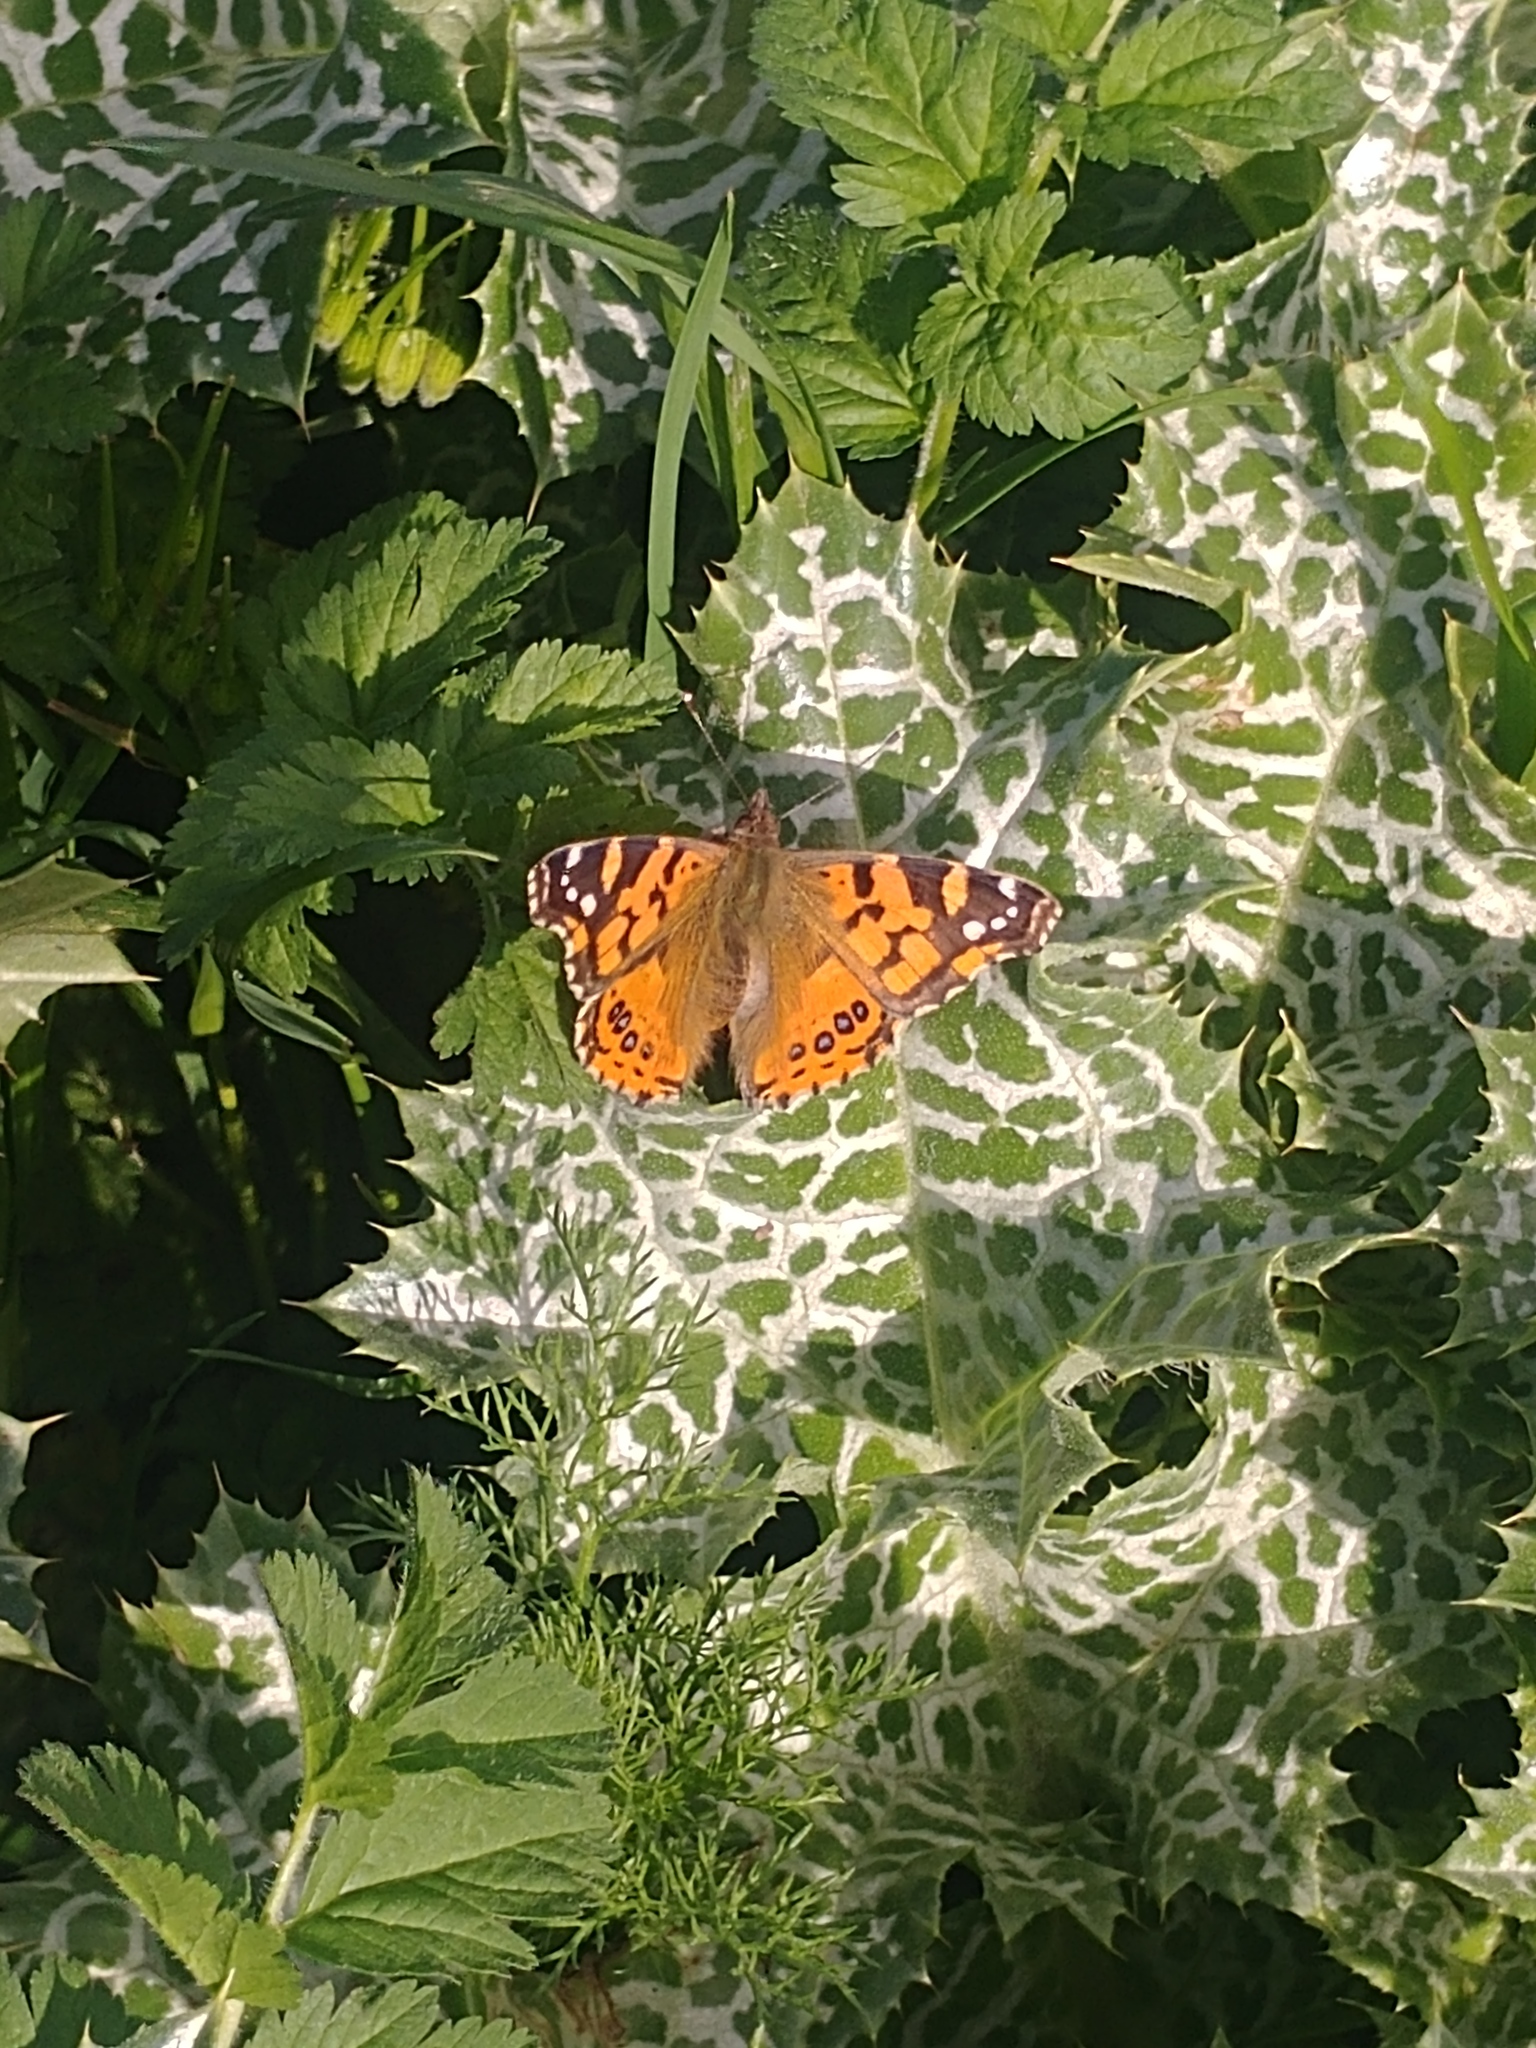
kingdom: Animalia
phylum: Arthropoda
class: Insecta
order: Lepidoptera
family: Nymphalidae
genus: Vanessa
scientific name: Vanessa carye
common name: Subtropical lady
